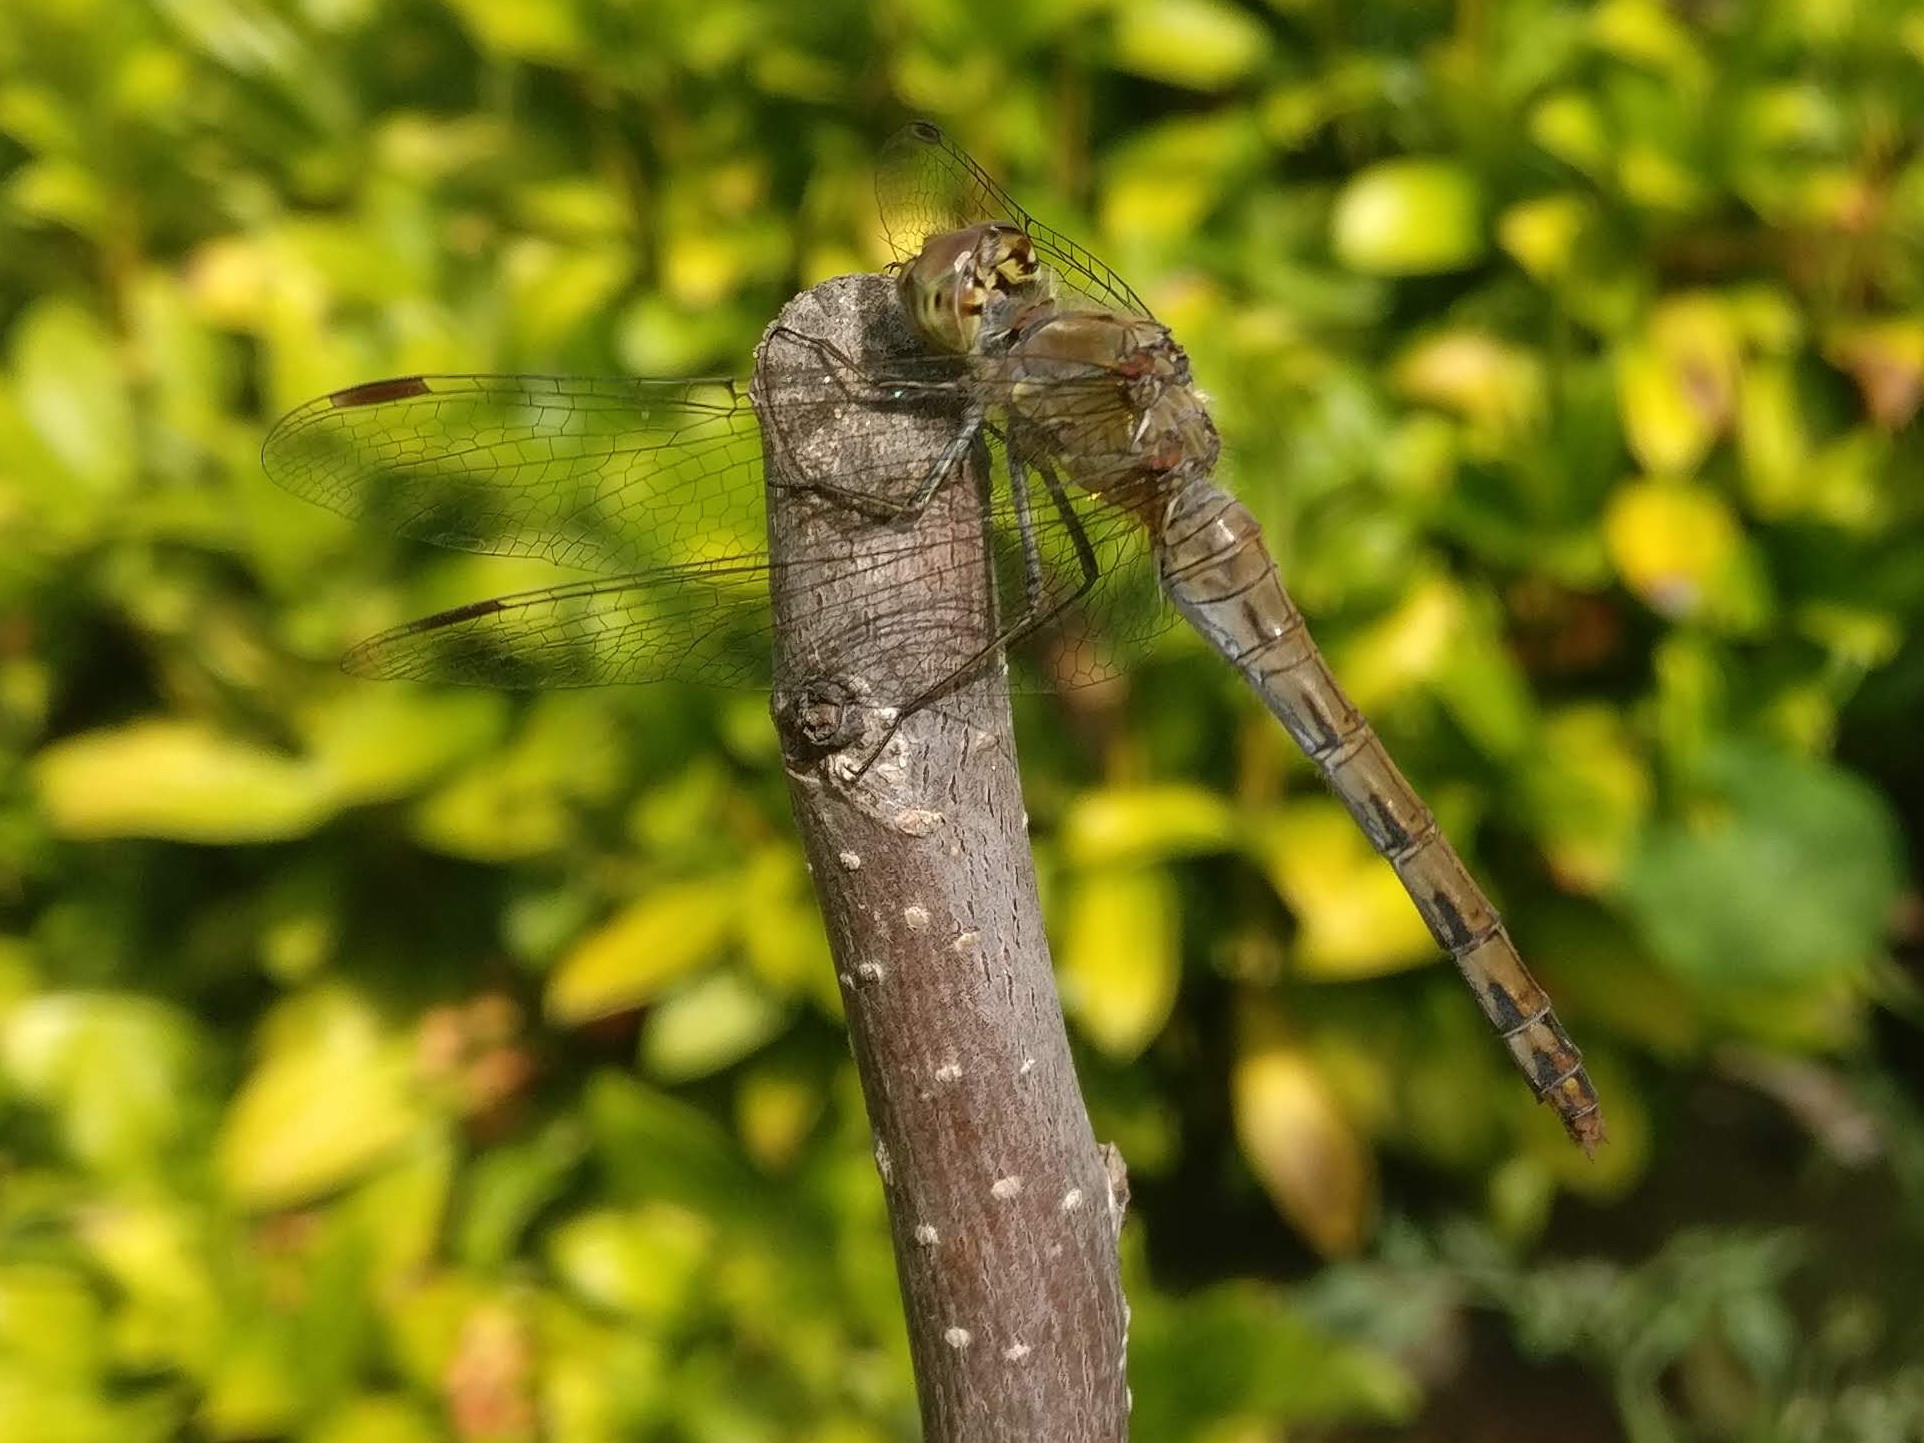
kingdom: Animalia
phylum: Arthropoda
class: Insecta
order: Odonata
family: Libellulidae
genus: Sympetrum
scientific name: Sympetrum striolatum
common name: Common darter
